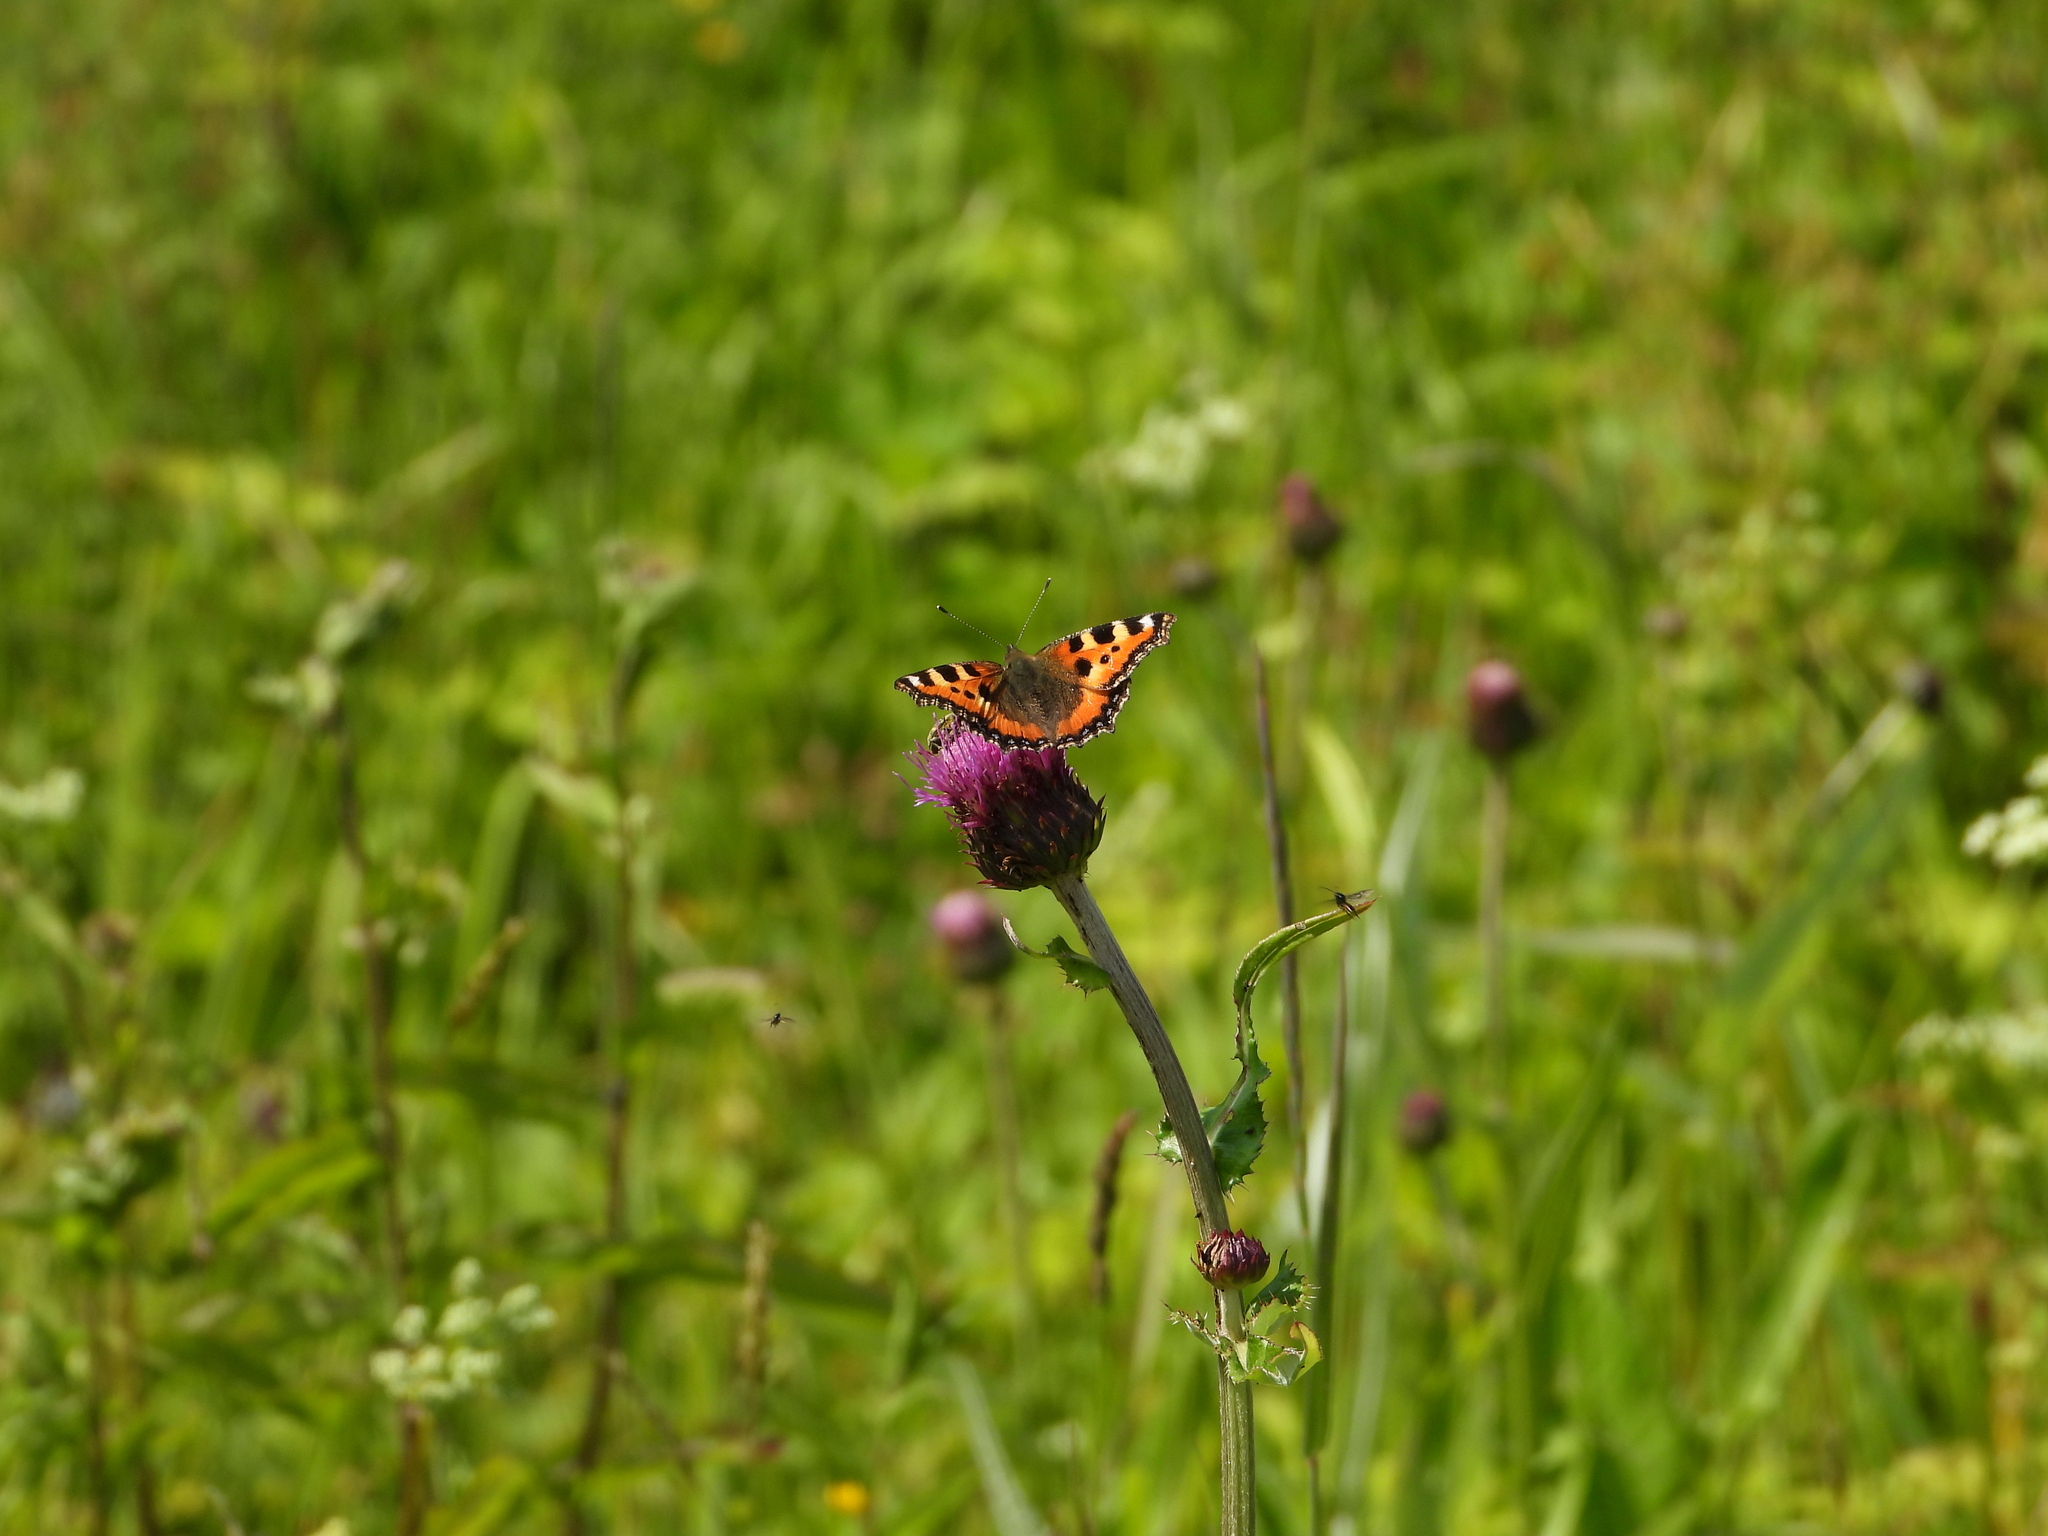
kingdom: Animalia
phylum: Arthropoda
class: Insecta
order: Lepidoptera
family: Nymphalidae
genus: Aglais
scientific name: Aglais urticae
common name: Small tortoiseshell
